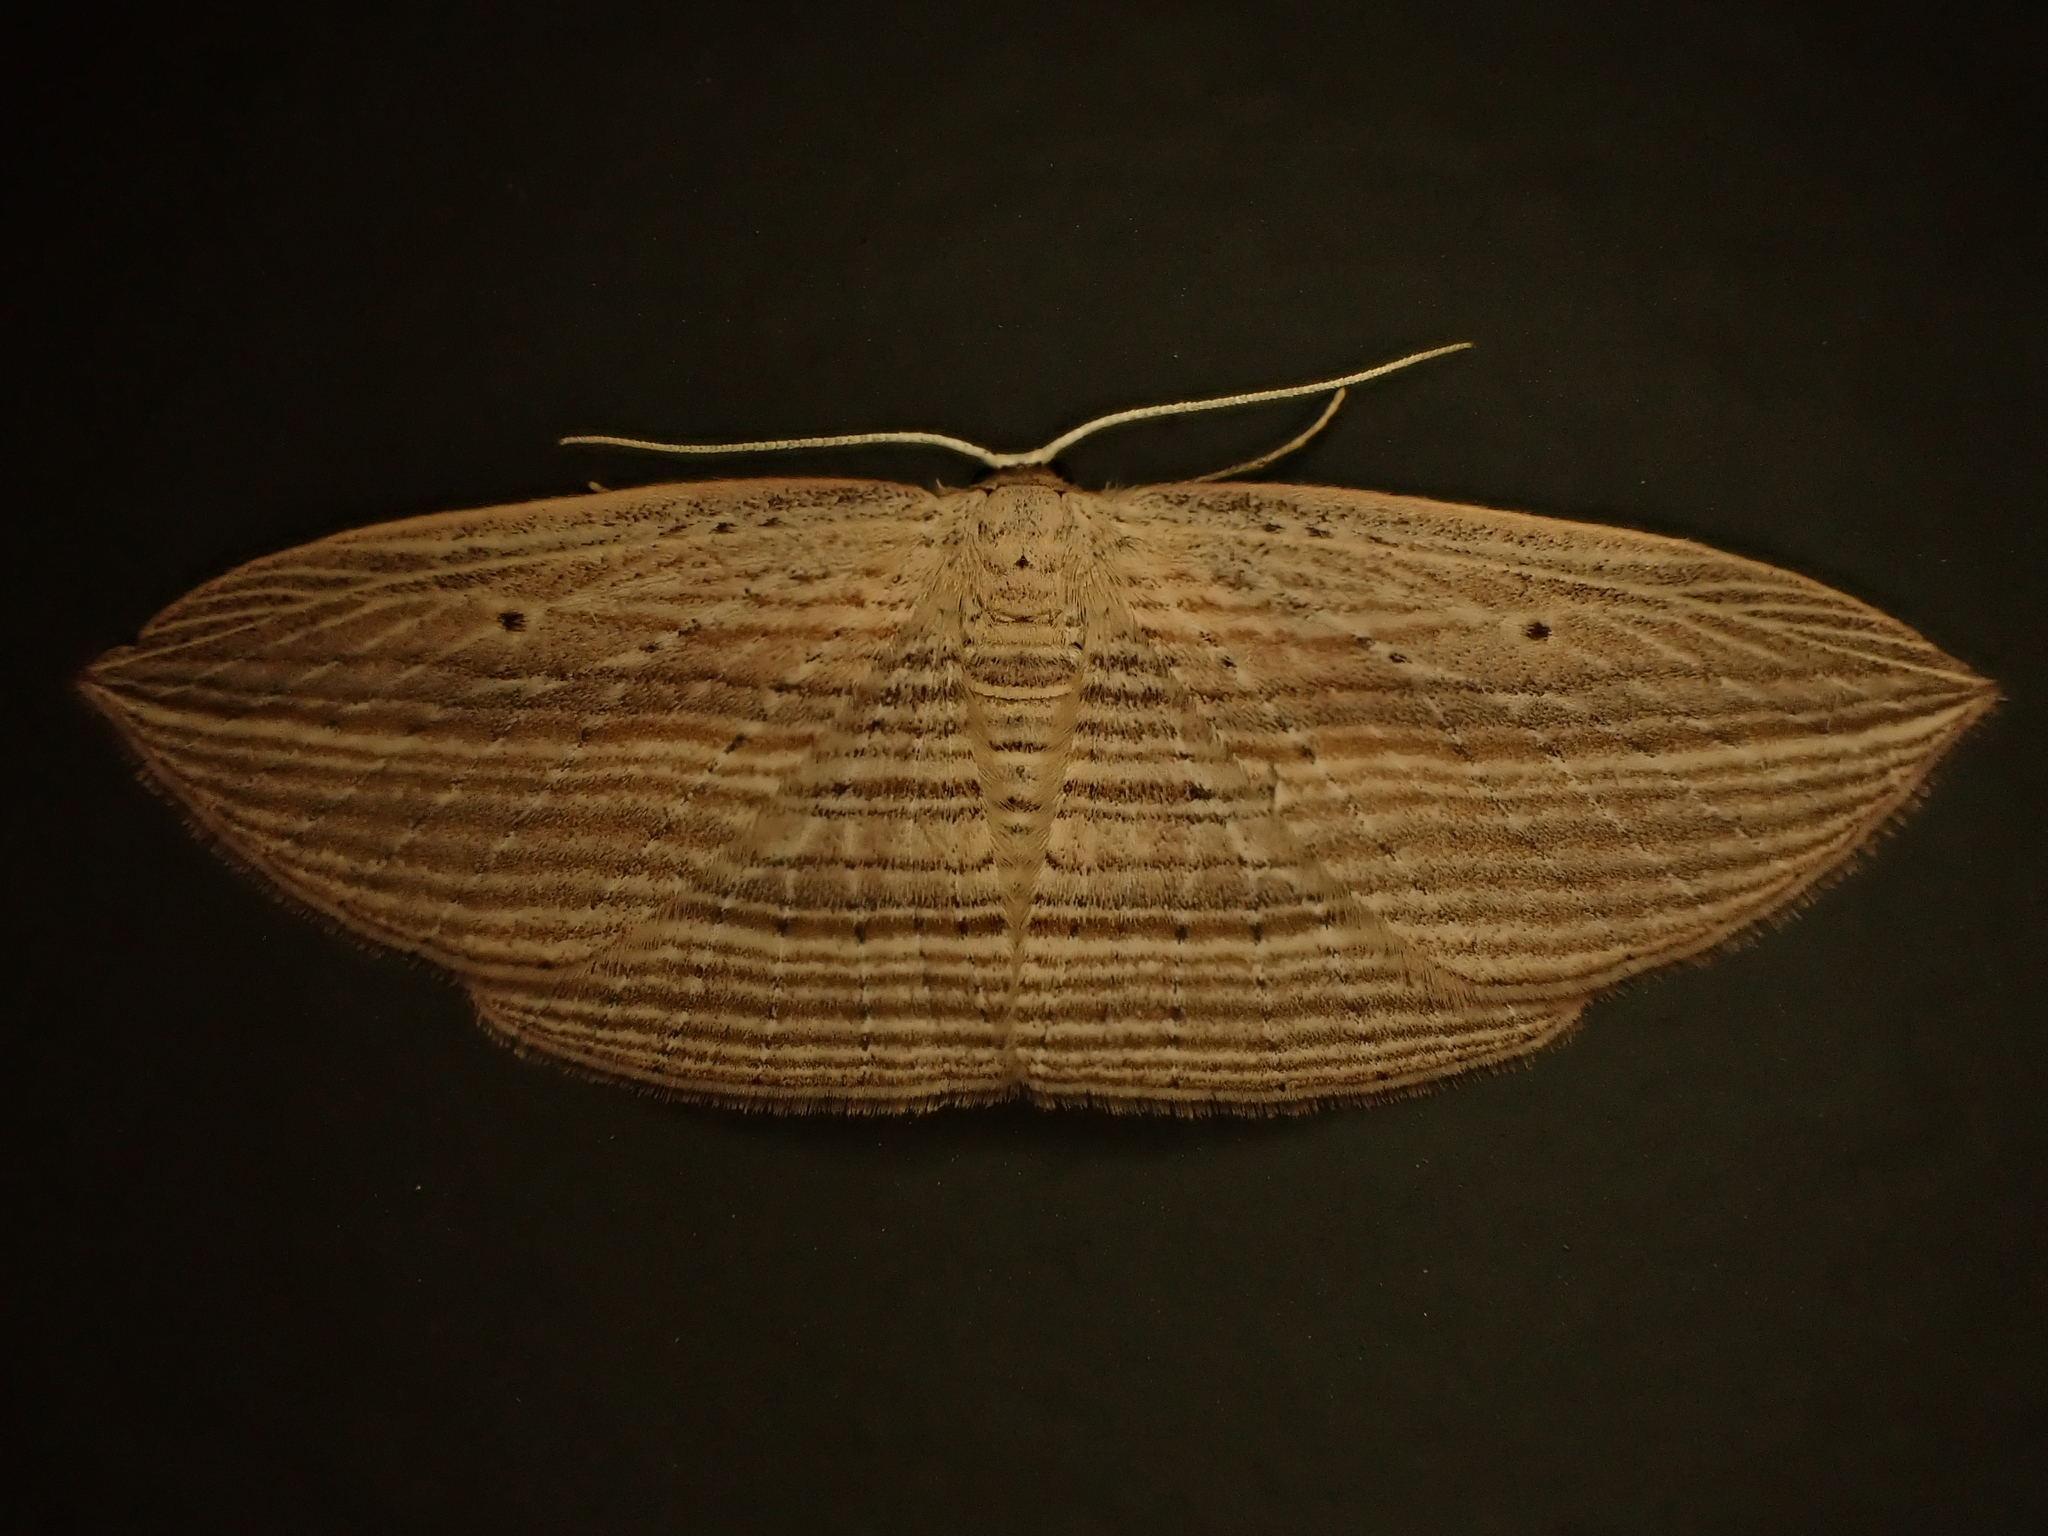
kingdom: Animalia
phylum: Arthropoda
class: Insecta
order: Lepidoptera
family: Geometridae
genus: Epiphryne
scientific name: Epiphryne verriculata
